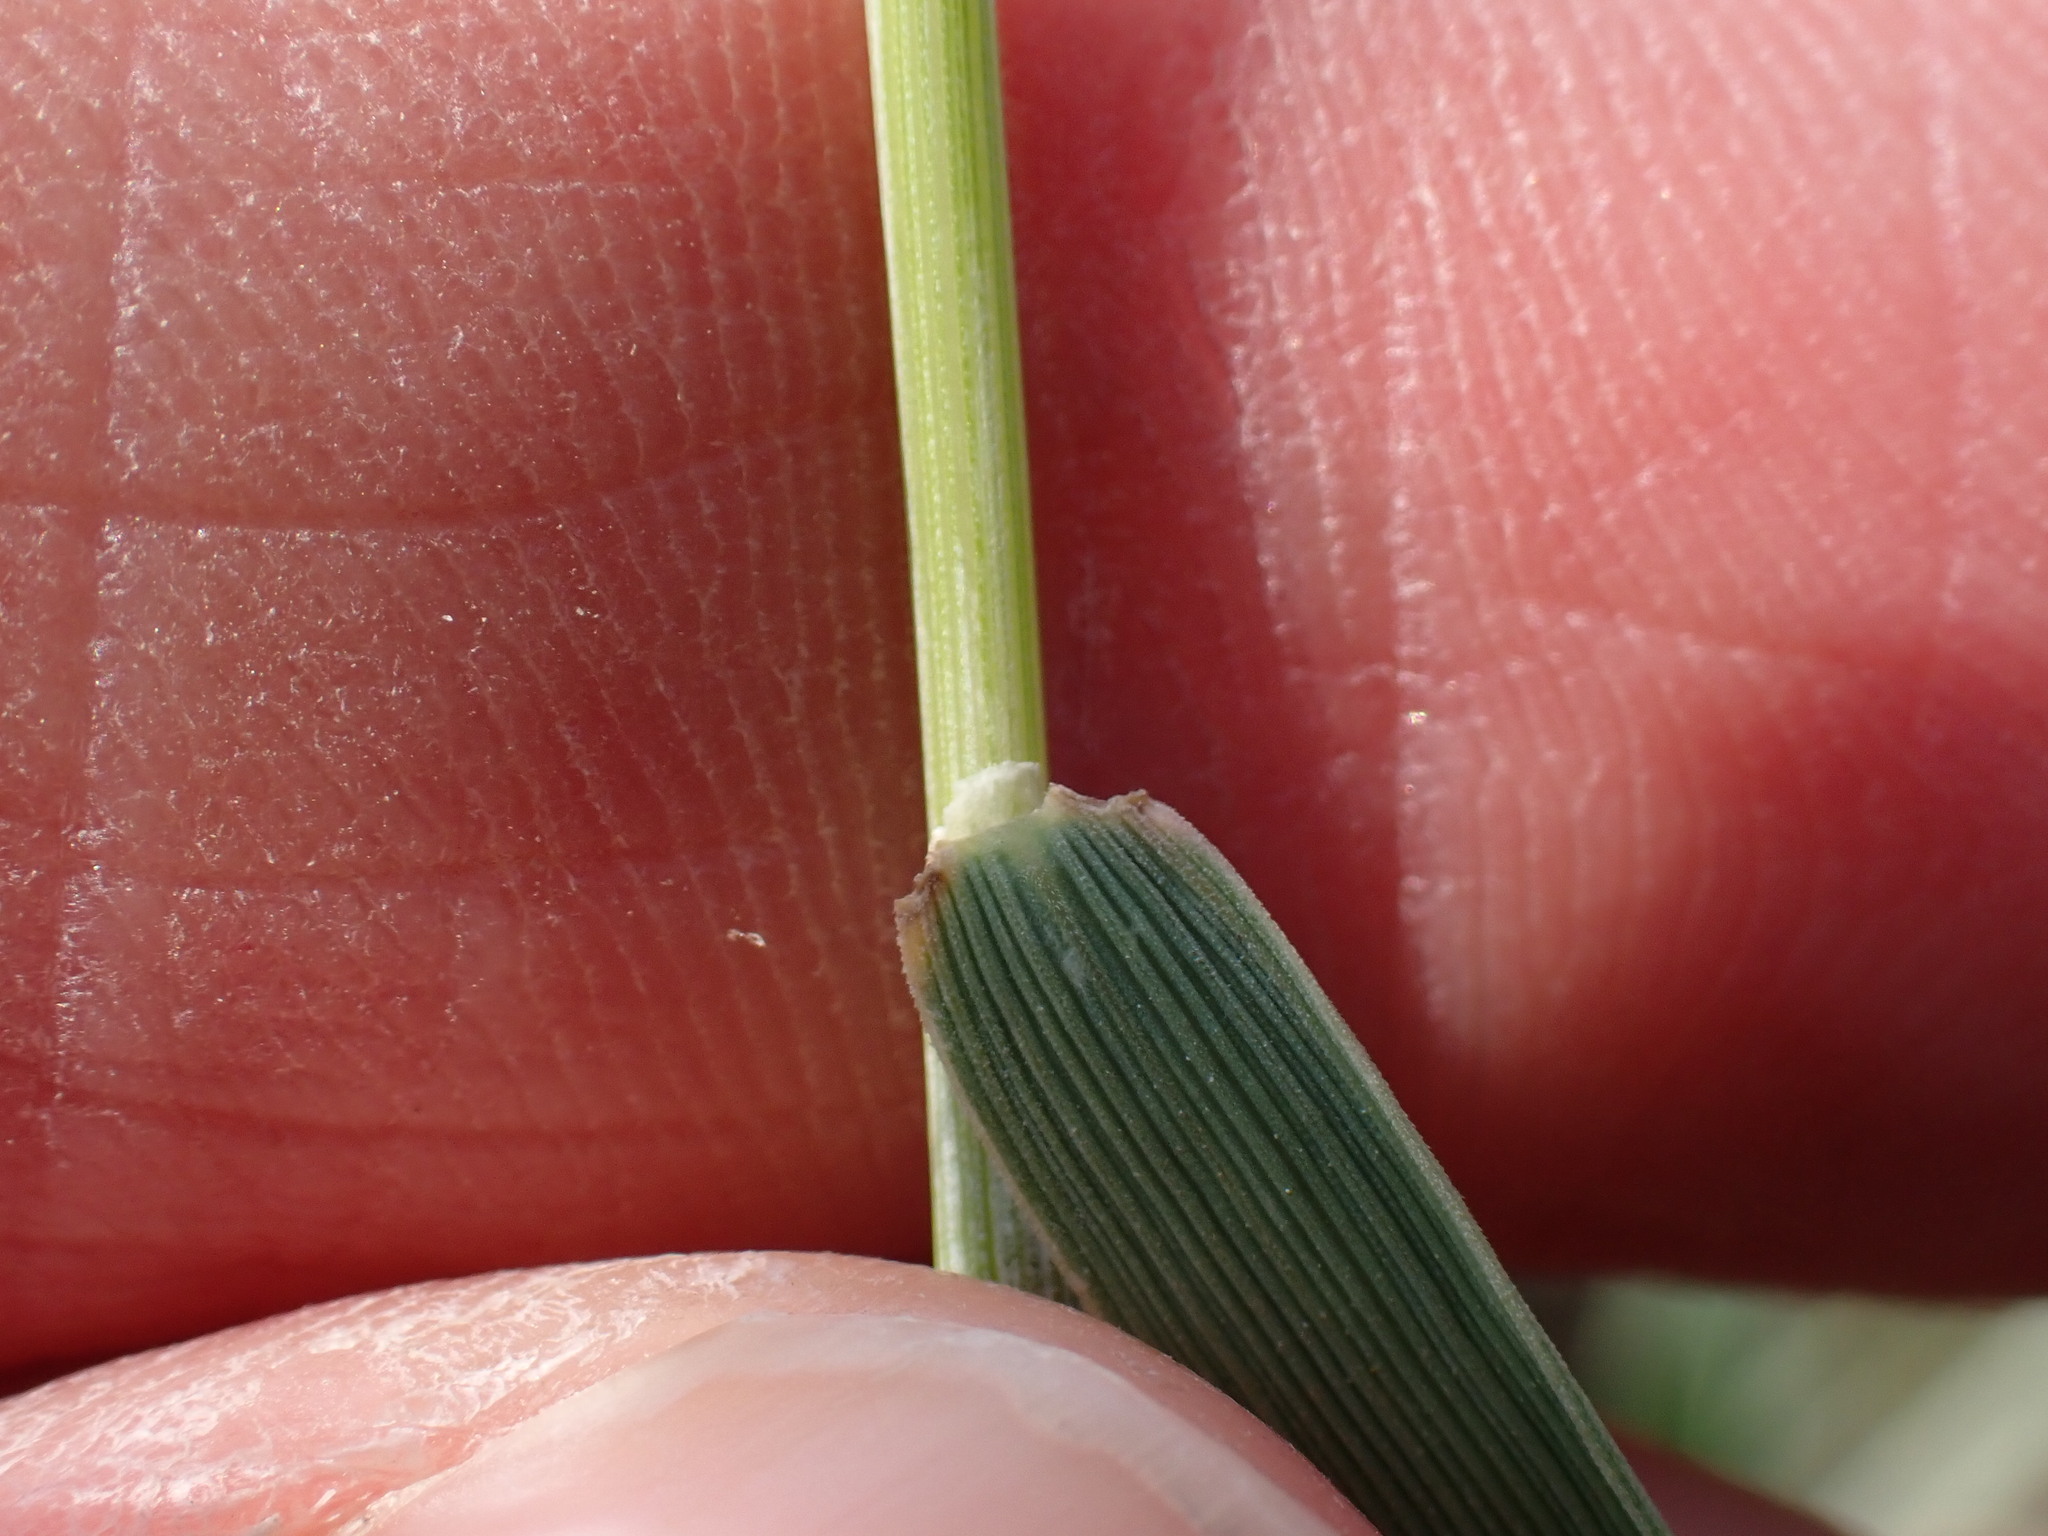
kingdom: Plantae
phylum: Tracheophyta
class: Liliopsida
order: Poales
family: Poaceae
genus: Hordeum
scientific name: Hordeum jubatum
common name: Foxtail barley
